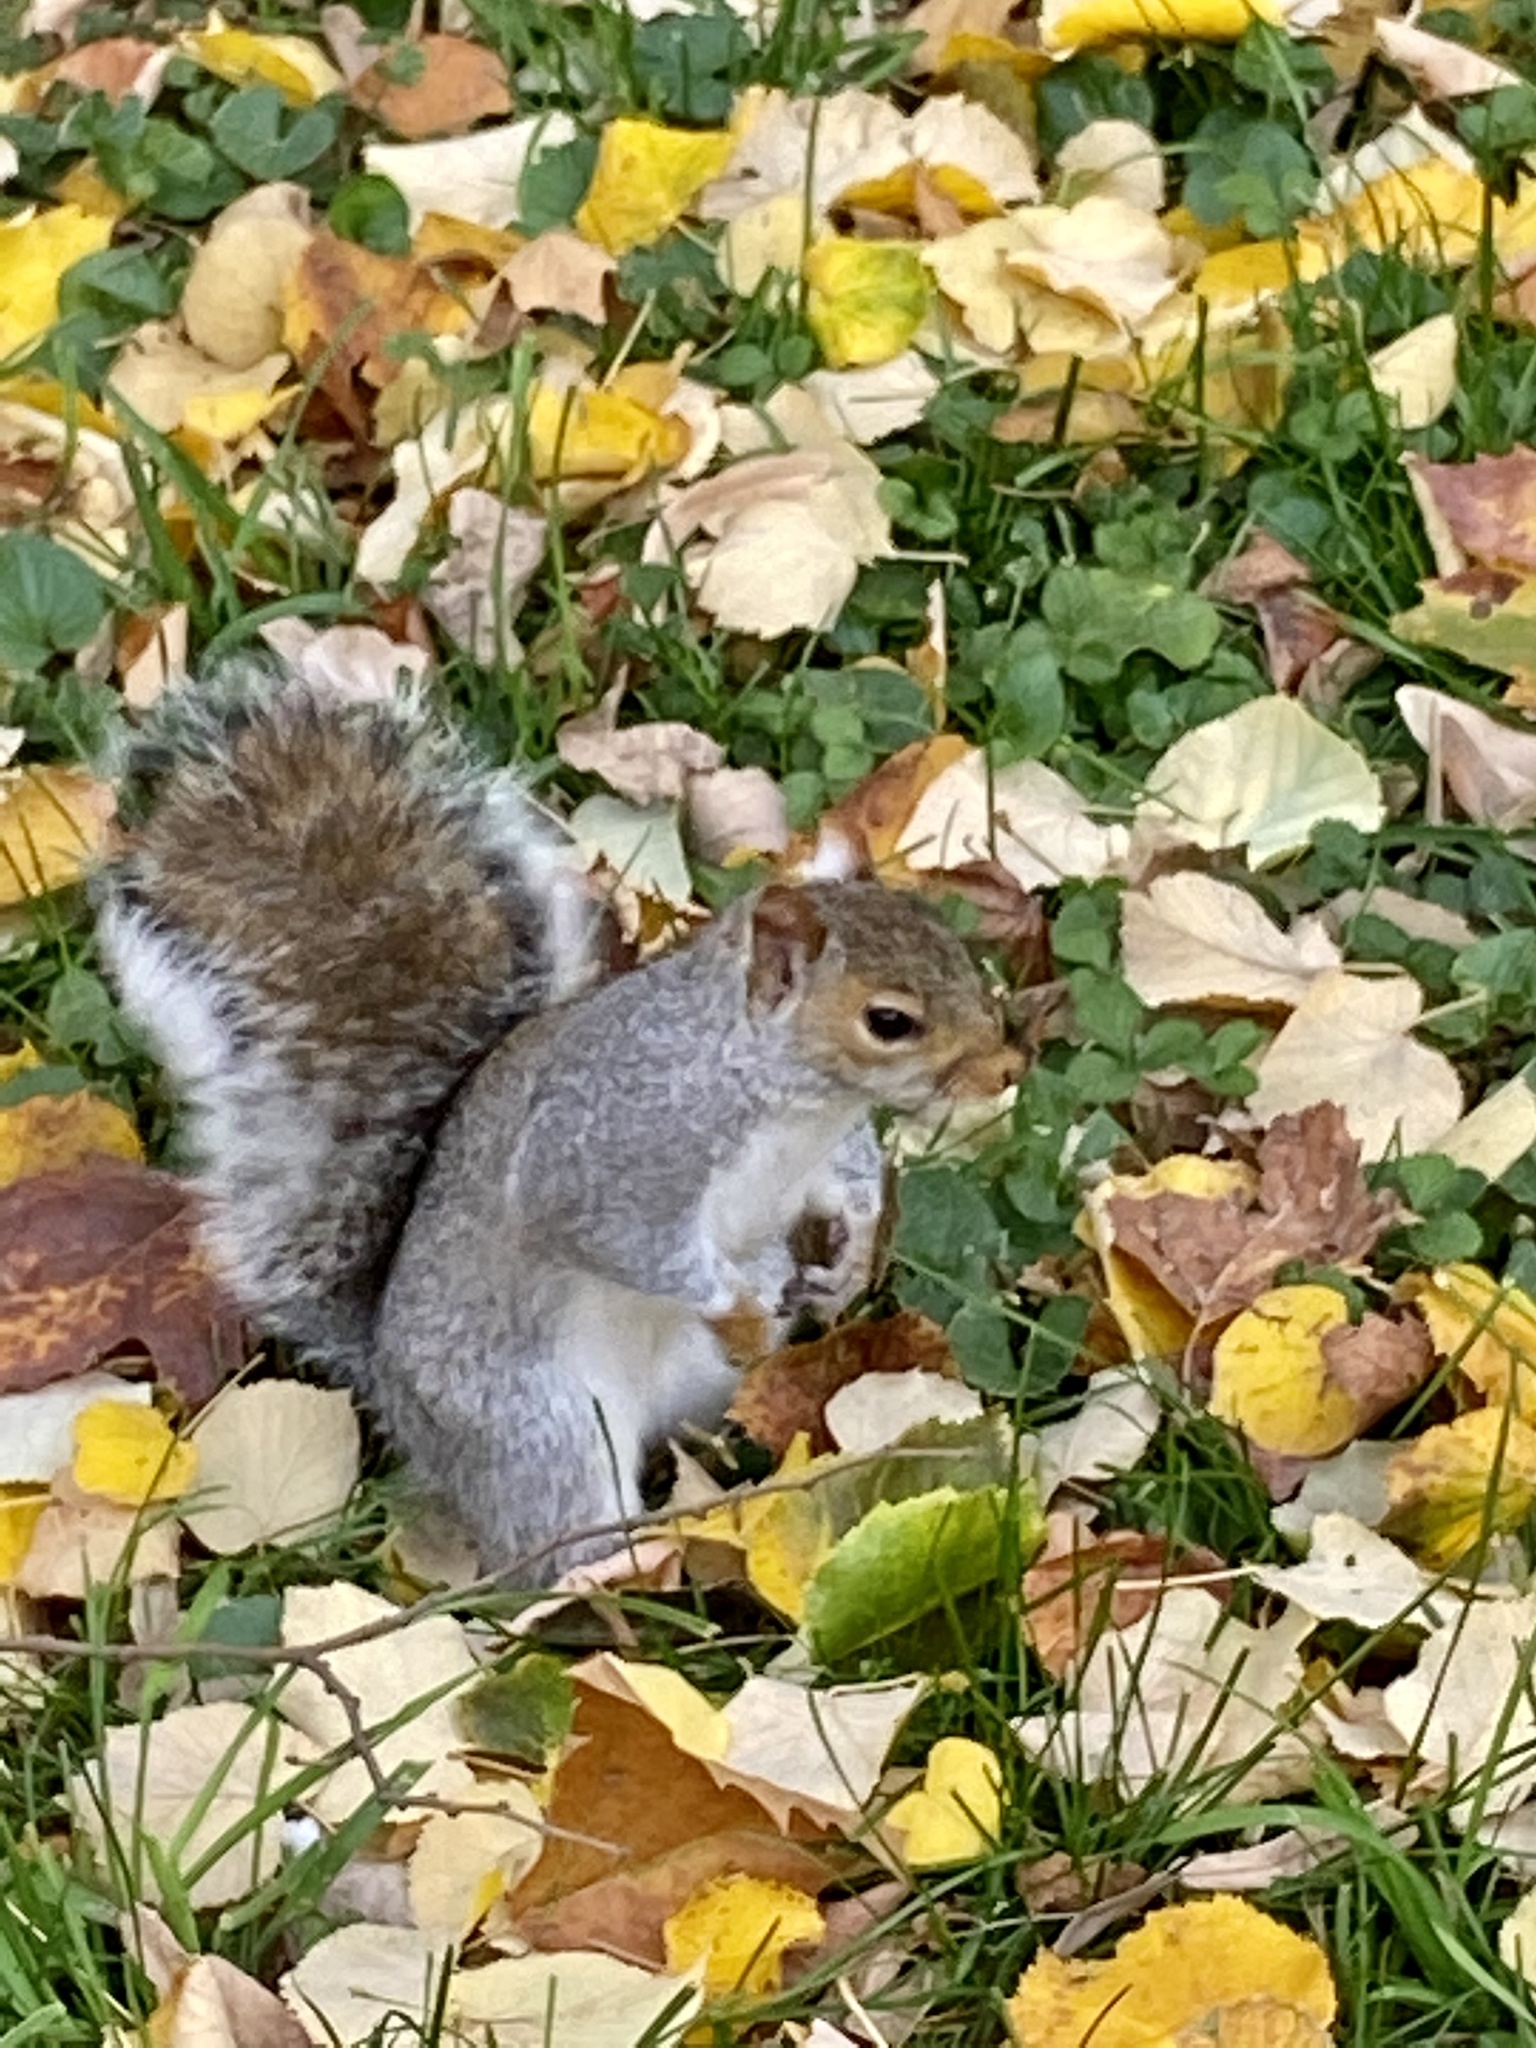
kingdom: Animalia
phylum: Chordata
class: Mammalia
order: Rodentia
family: Sciuridae
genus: Sciurus
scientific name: Sciurus carolinensis
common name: Eastern gray squirrel
